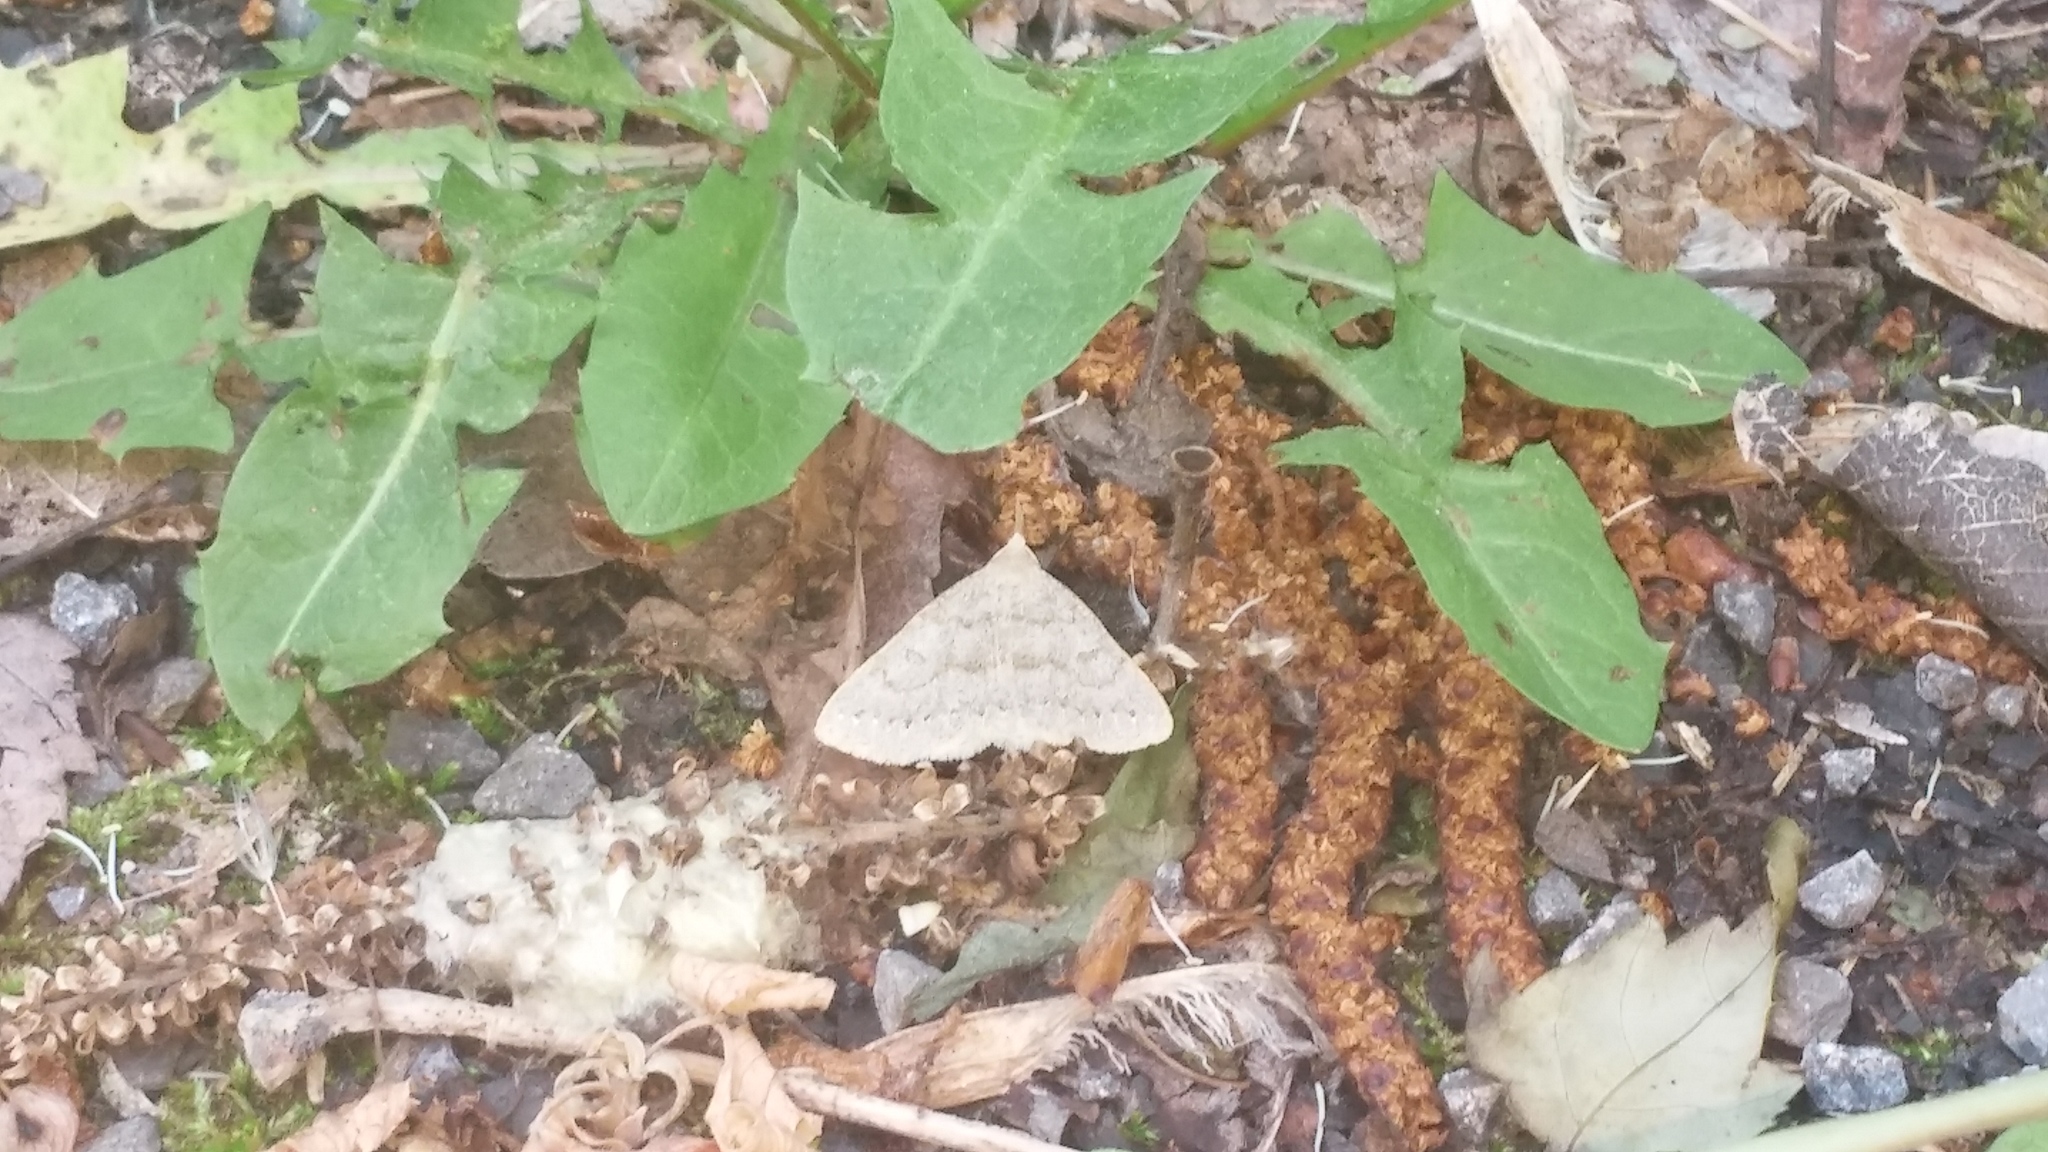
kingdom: Animalia
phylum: Arthropoda
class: Insecta
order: Lepidoptera
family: Erebidae
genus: Macrochilo
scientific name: Macrochilo morbidalis
